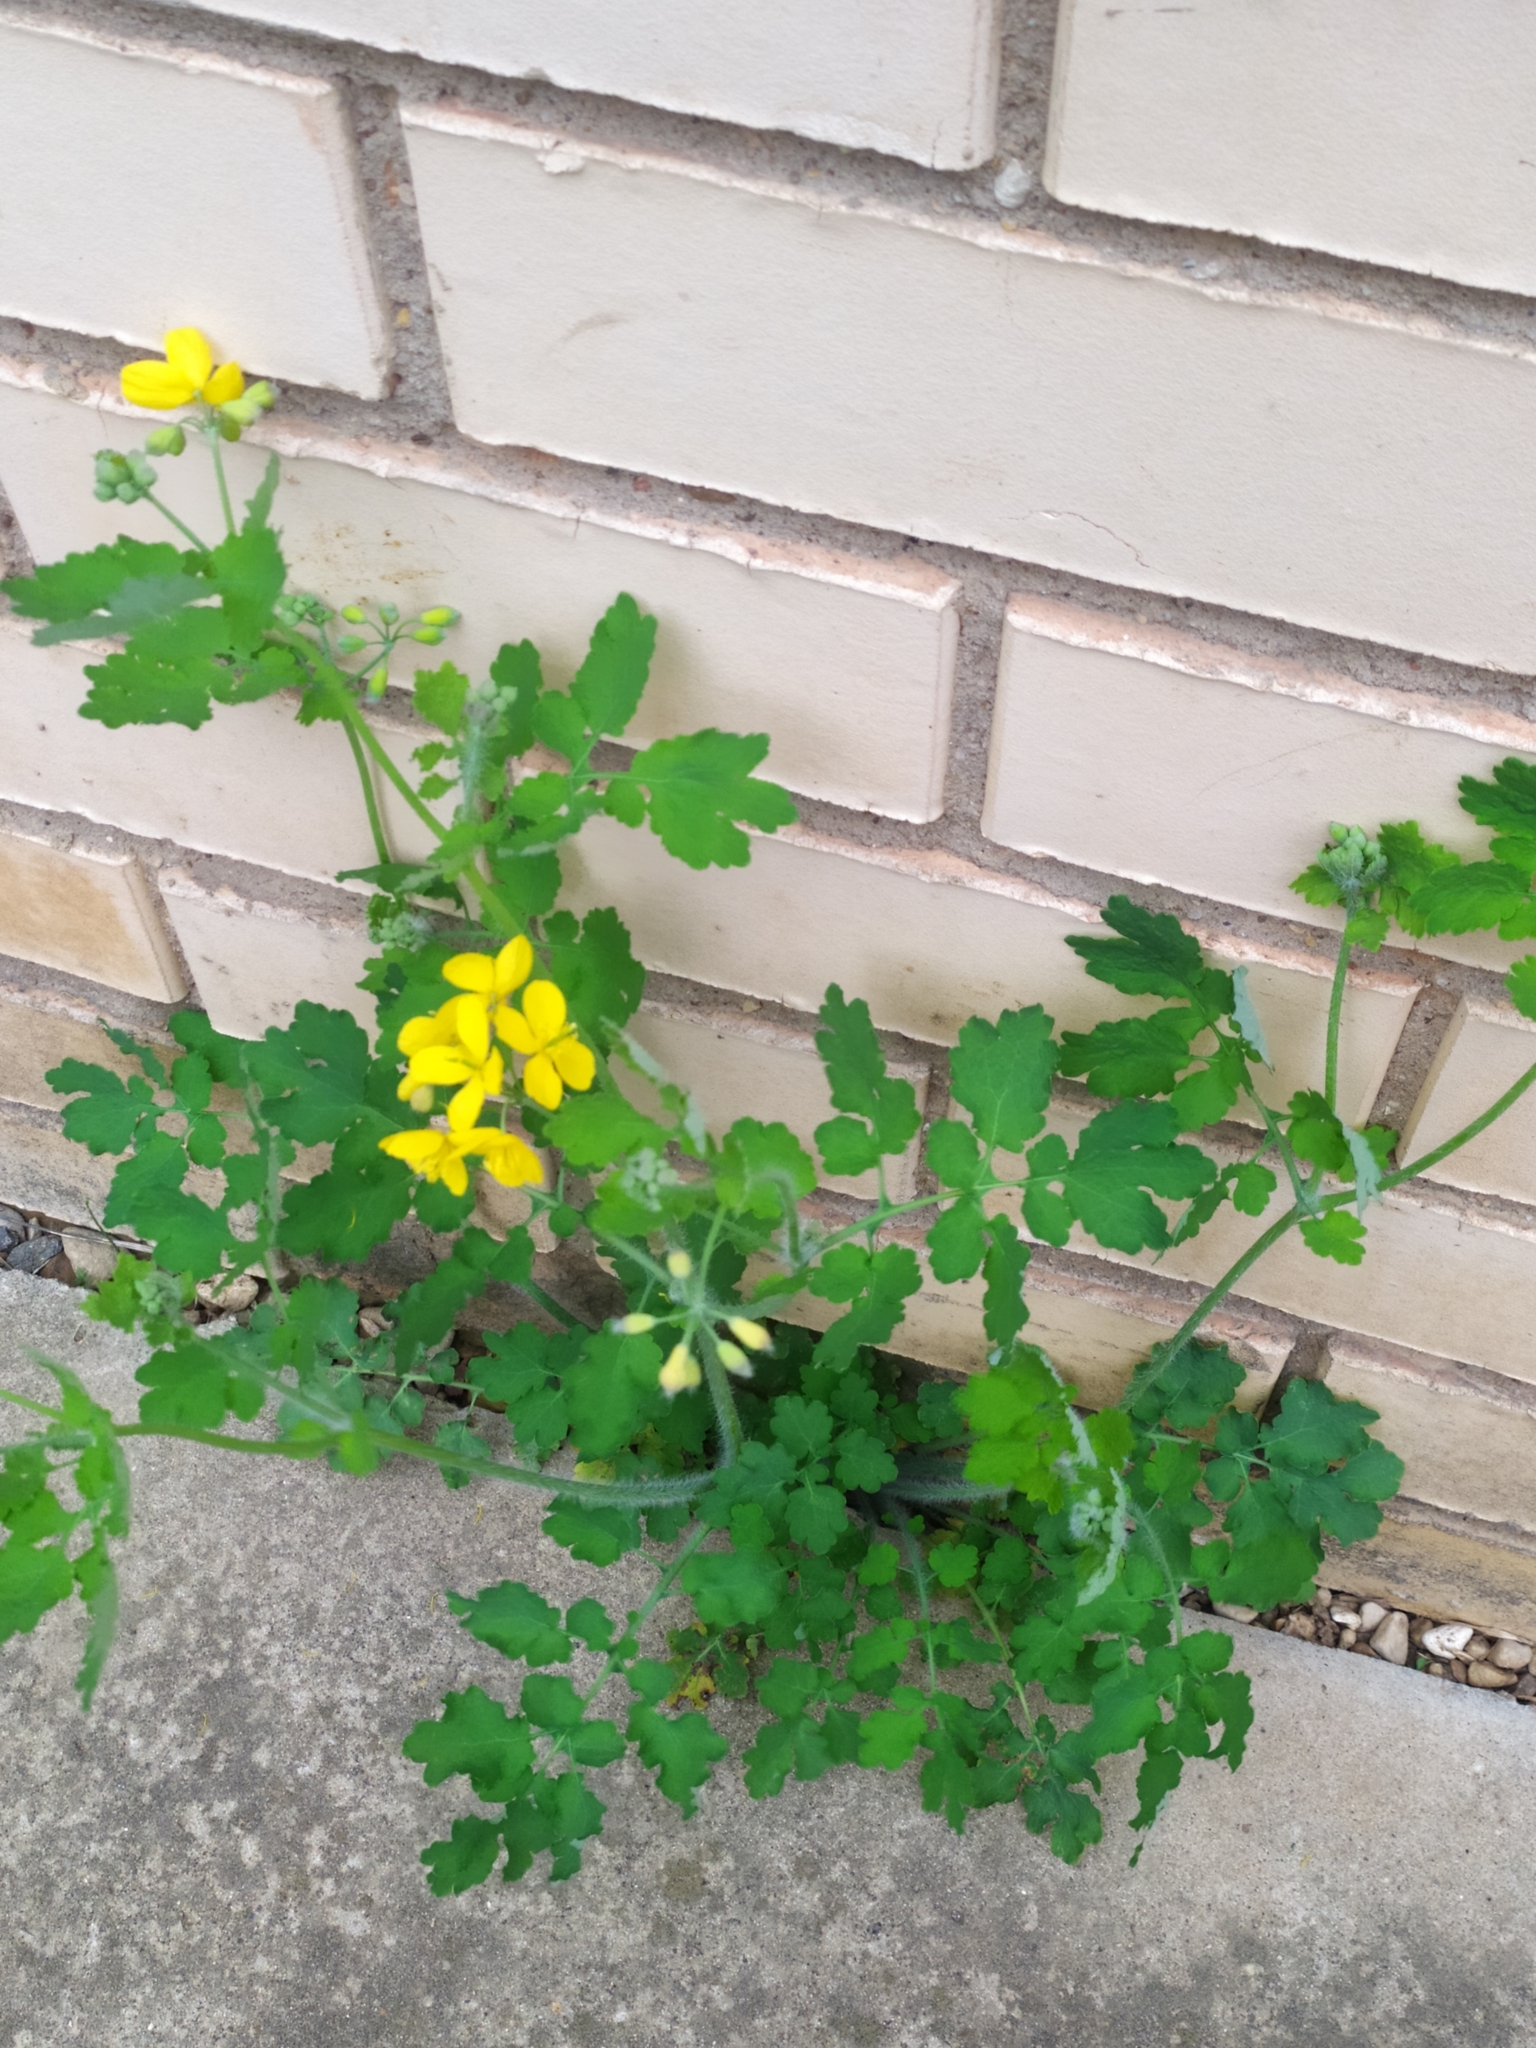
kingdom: Plantae
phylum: Tracheophyta
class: Magnoliopsida
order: Ranunculales
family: Papaveraceae
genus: Chelidonium
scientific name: Chelidonium majus
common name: Greater celandine
